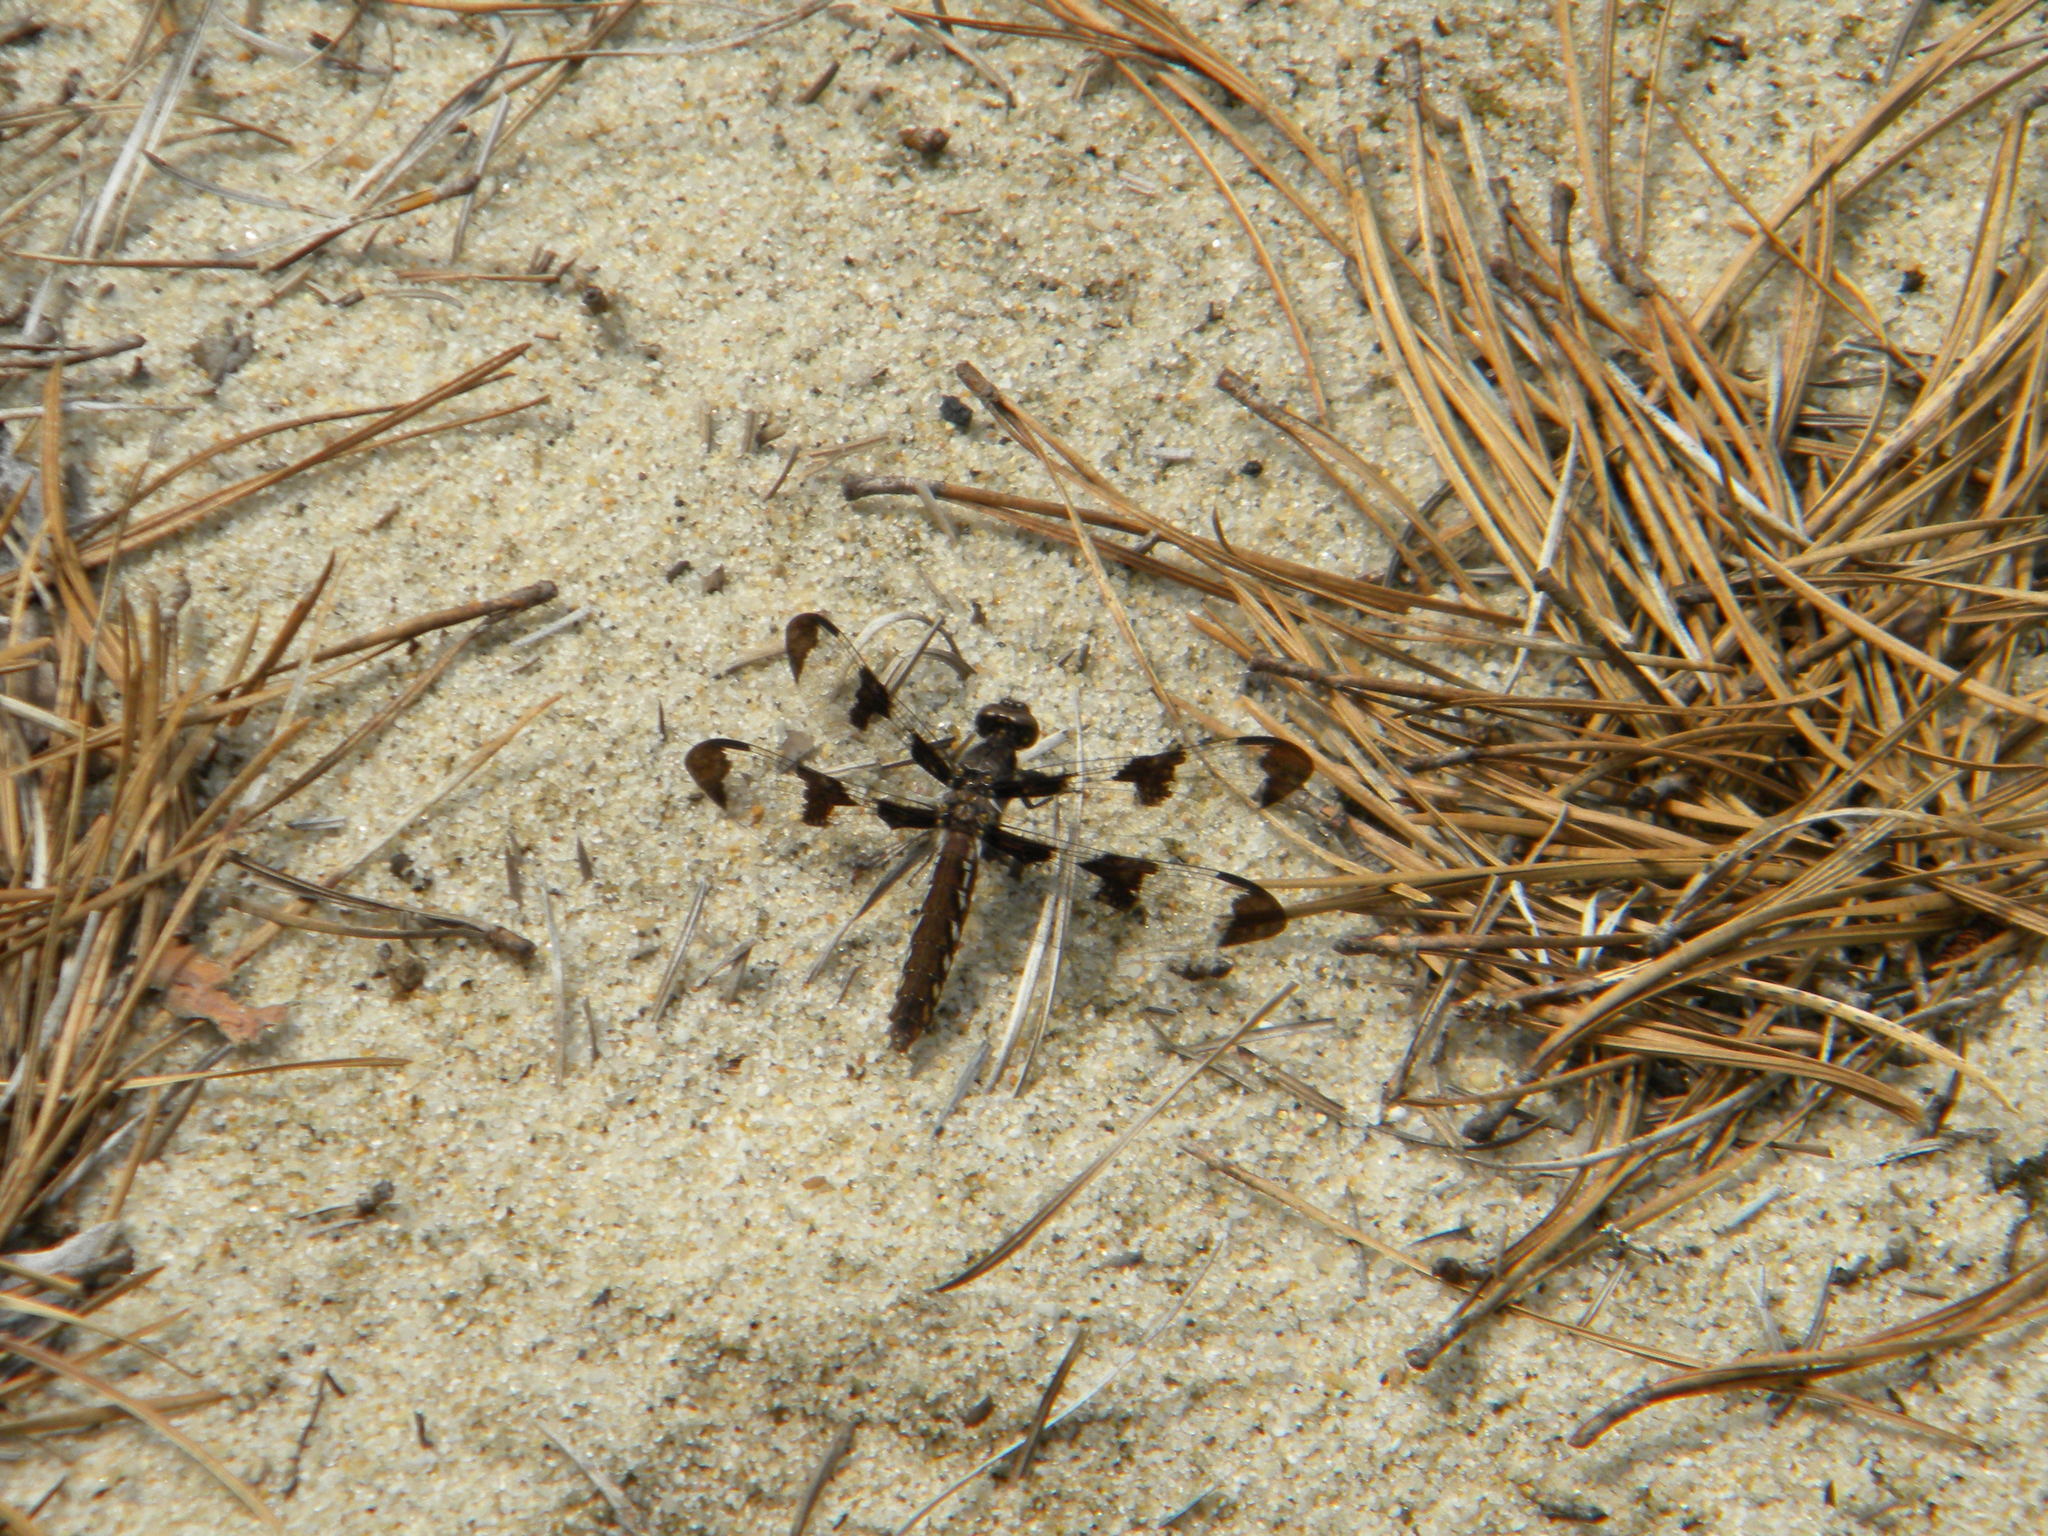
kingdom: Animalia
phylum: Arthropoda
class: Insecta
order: Odonata
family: Libellulidae
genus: Plathemis
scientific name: Plathemis lydia
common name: Common whitetail
